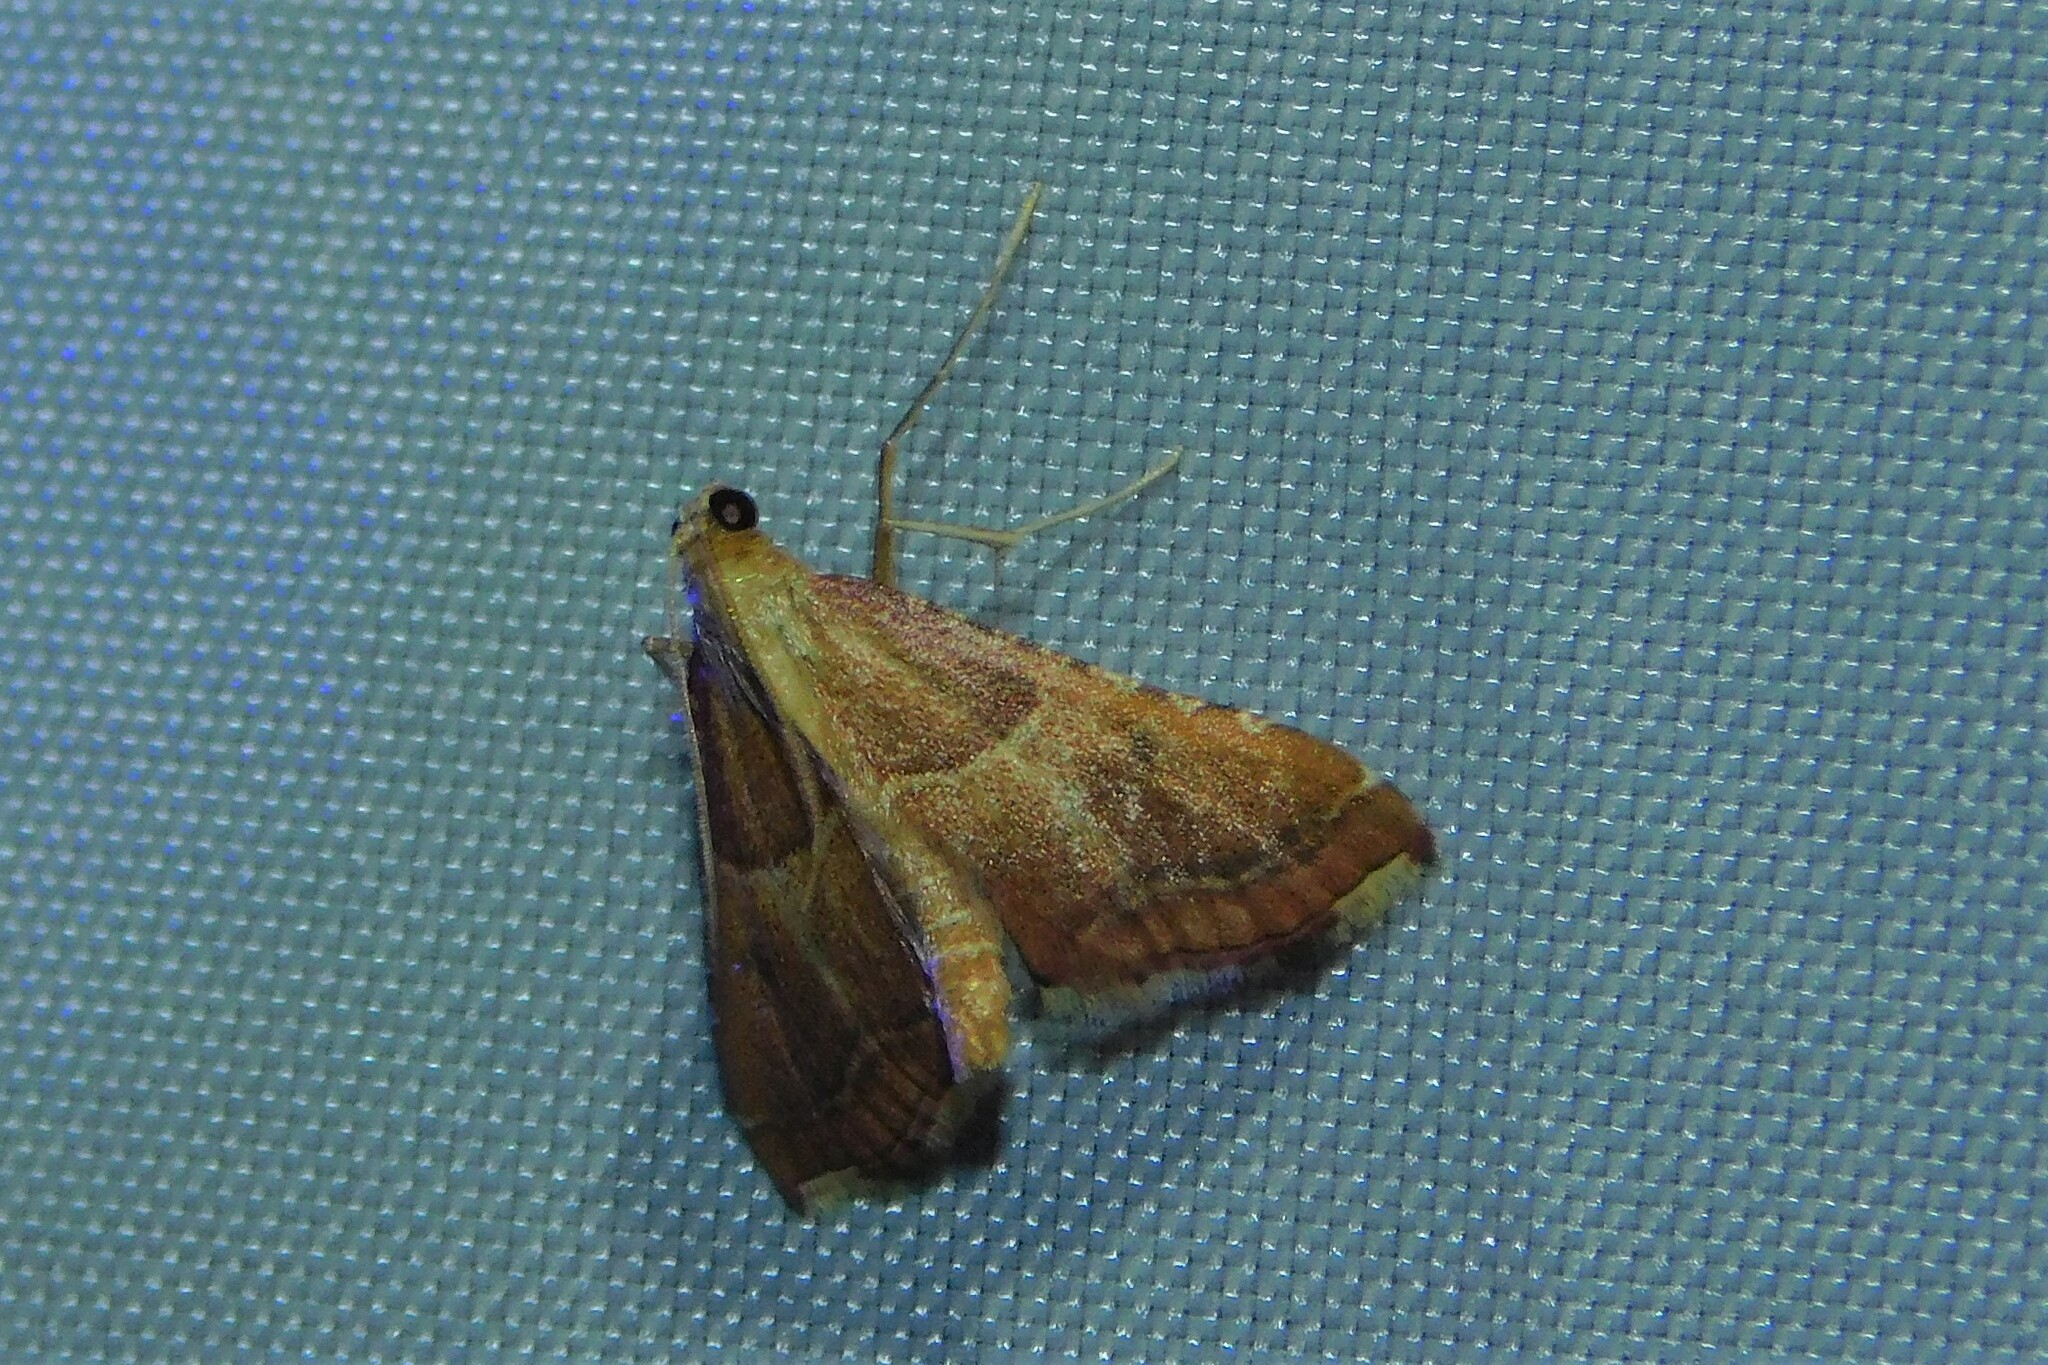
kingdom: Animalia
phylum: Arthropoda
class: Insecta
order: Lepidoptera
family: Pyralidae
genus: Endotricha
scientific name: Endotricha flammealis
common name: Rosy tabby
